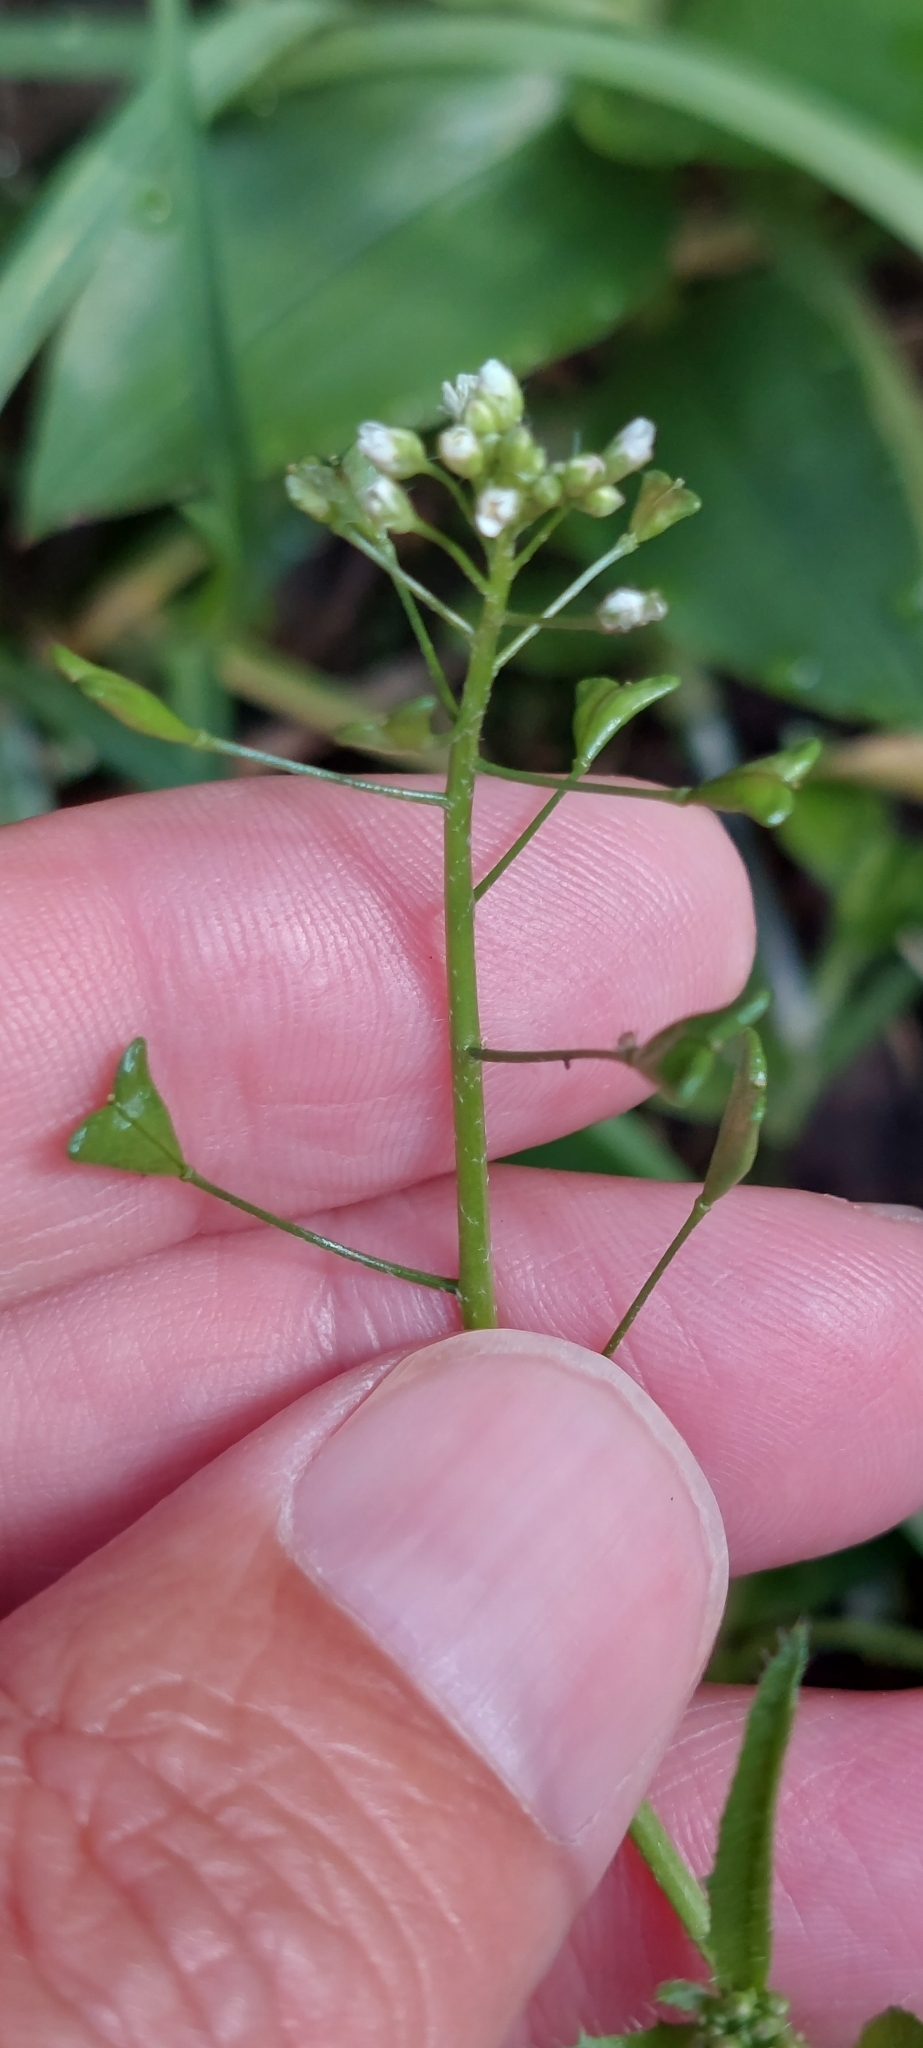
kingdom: Plantae
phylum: Tracheophyta
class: Magnoliopsida
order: Brassicales
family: Brassicaceae
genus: Capsella
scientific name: Capsella bursa-pastoris
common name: Shepherd's purse
